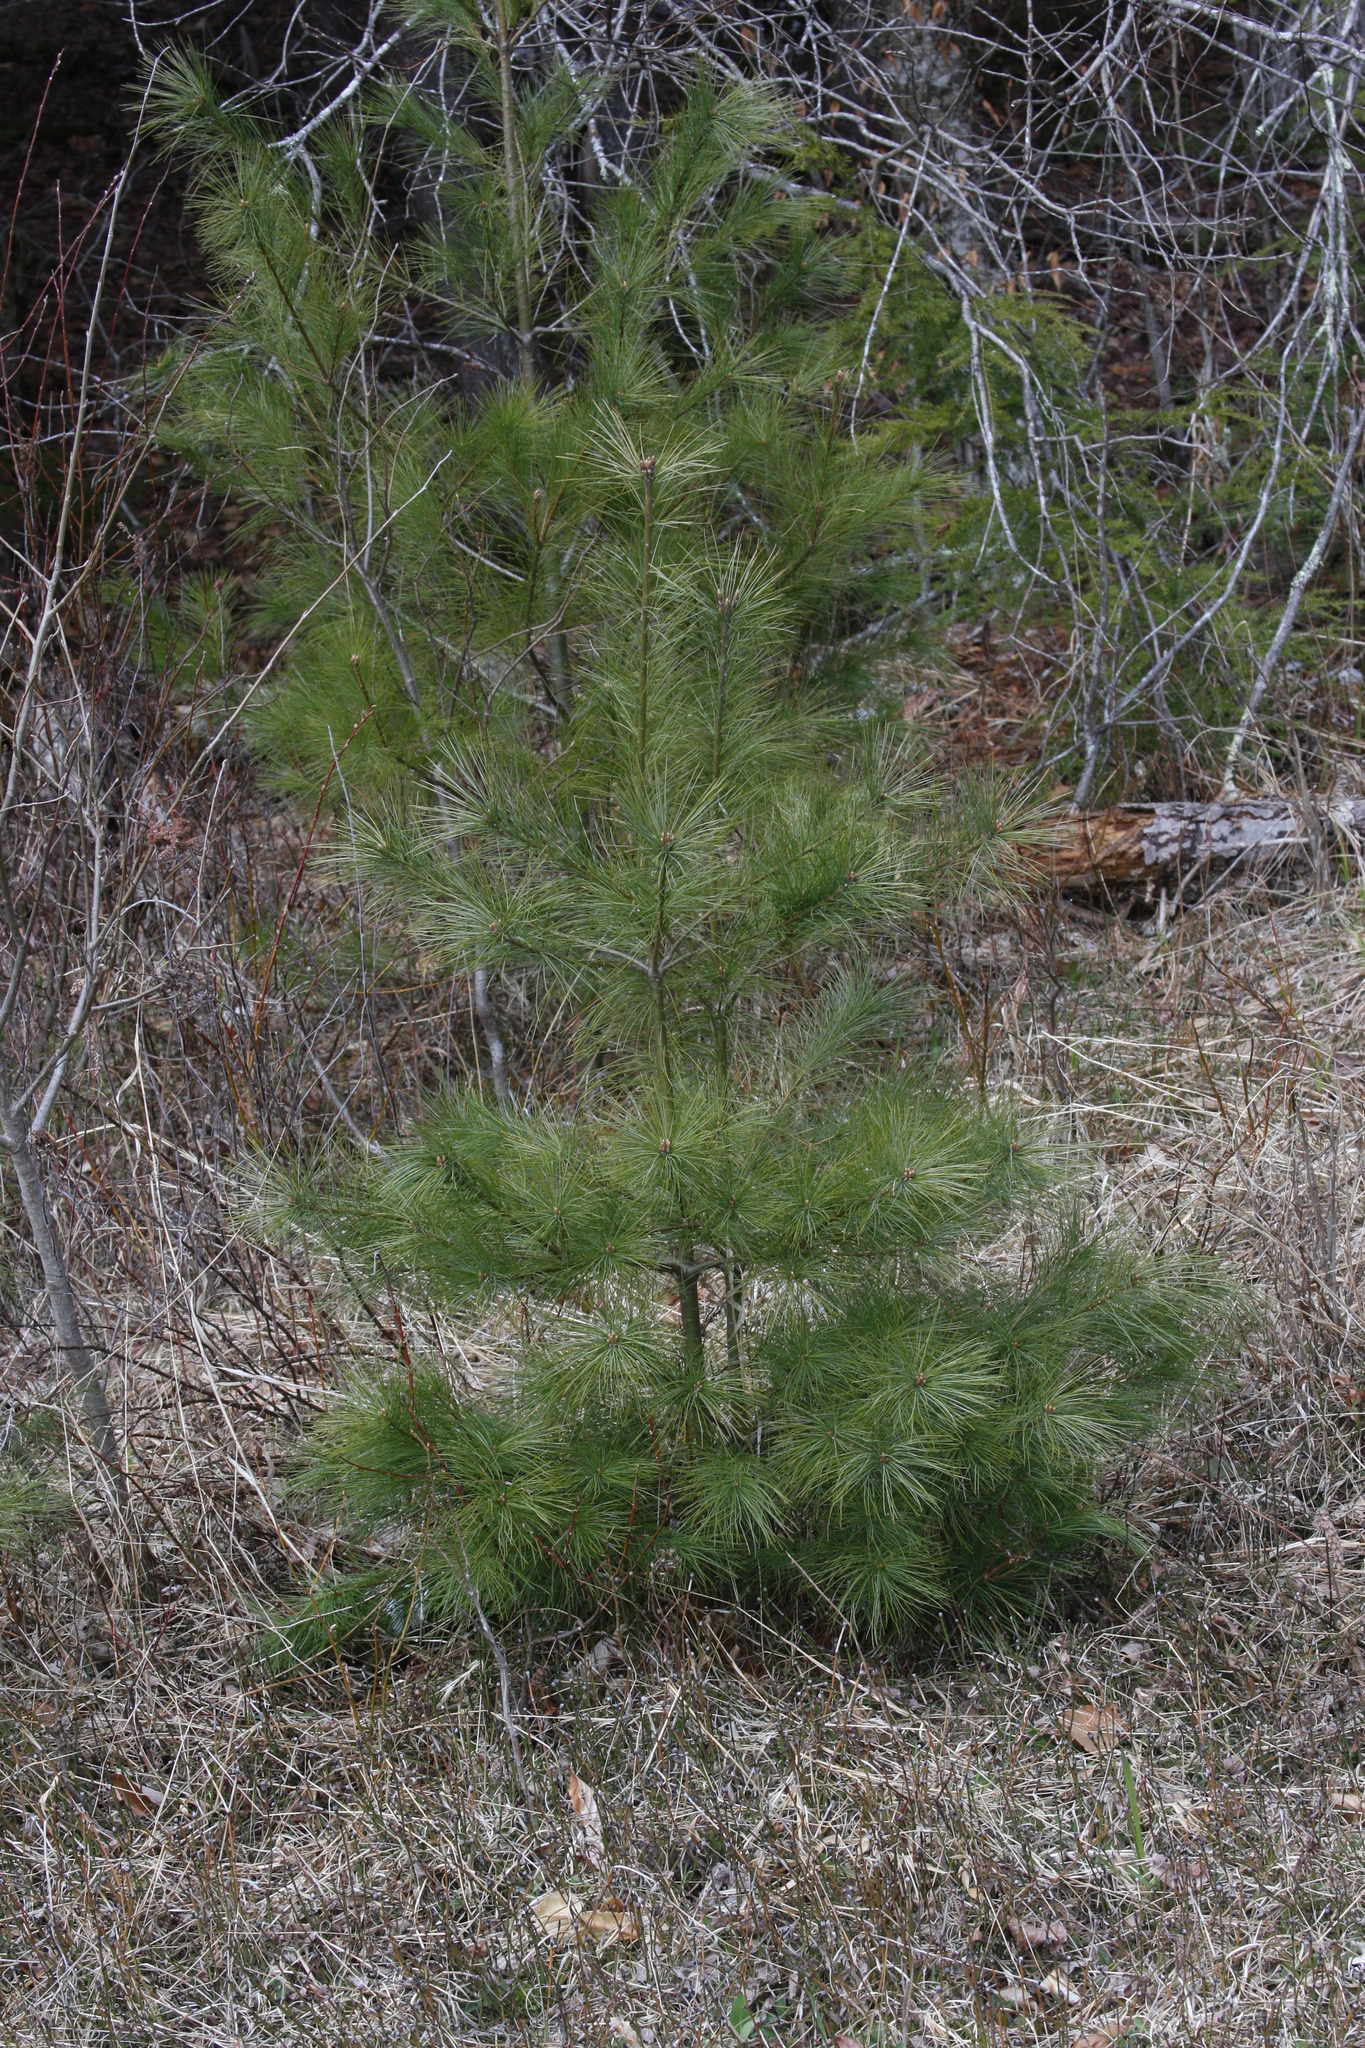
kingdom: Plantae
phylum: Tracheophyta
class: Pinopsida
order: Pinales
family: Pinaceae
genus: Pinus
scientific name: Pinus strobus
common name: Weymouth pine
